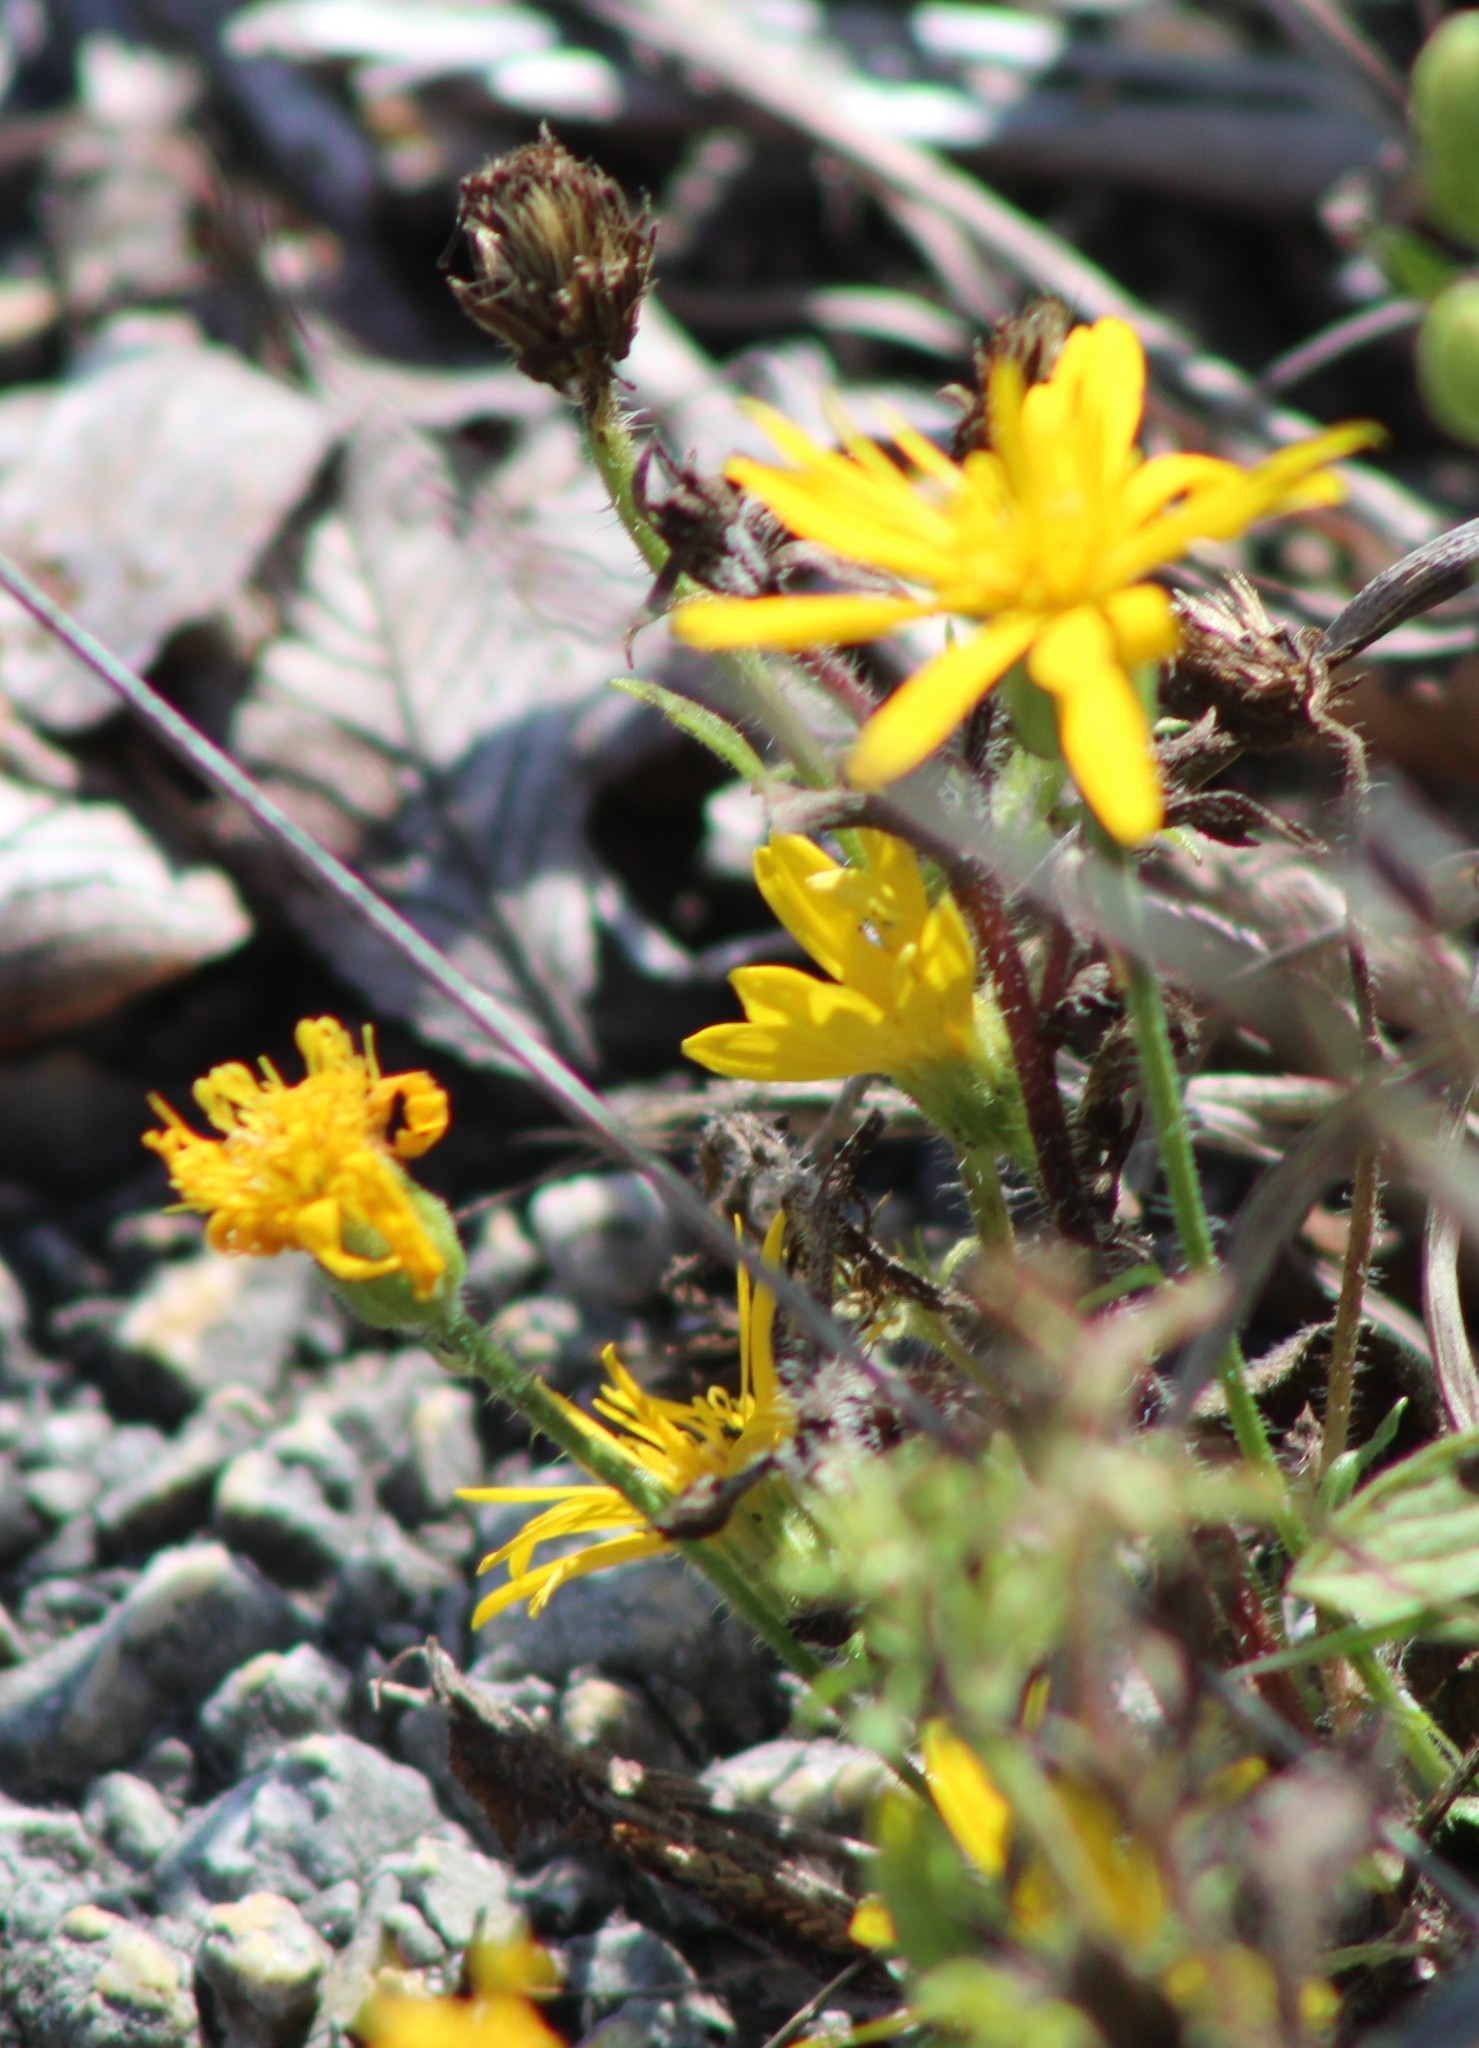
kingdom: Plantae
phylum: Tracheophyta
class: Magnoliopsida
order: Asterales
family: Asteraceae
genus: Heterotheca
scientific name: Heterotheca subaxillaris
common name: Camphorweed
